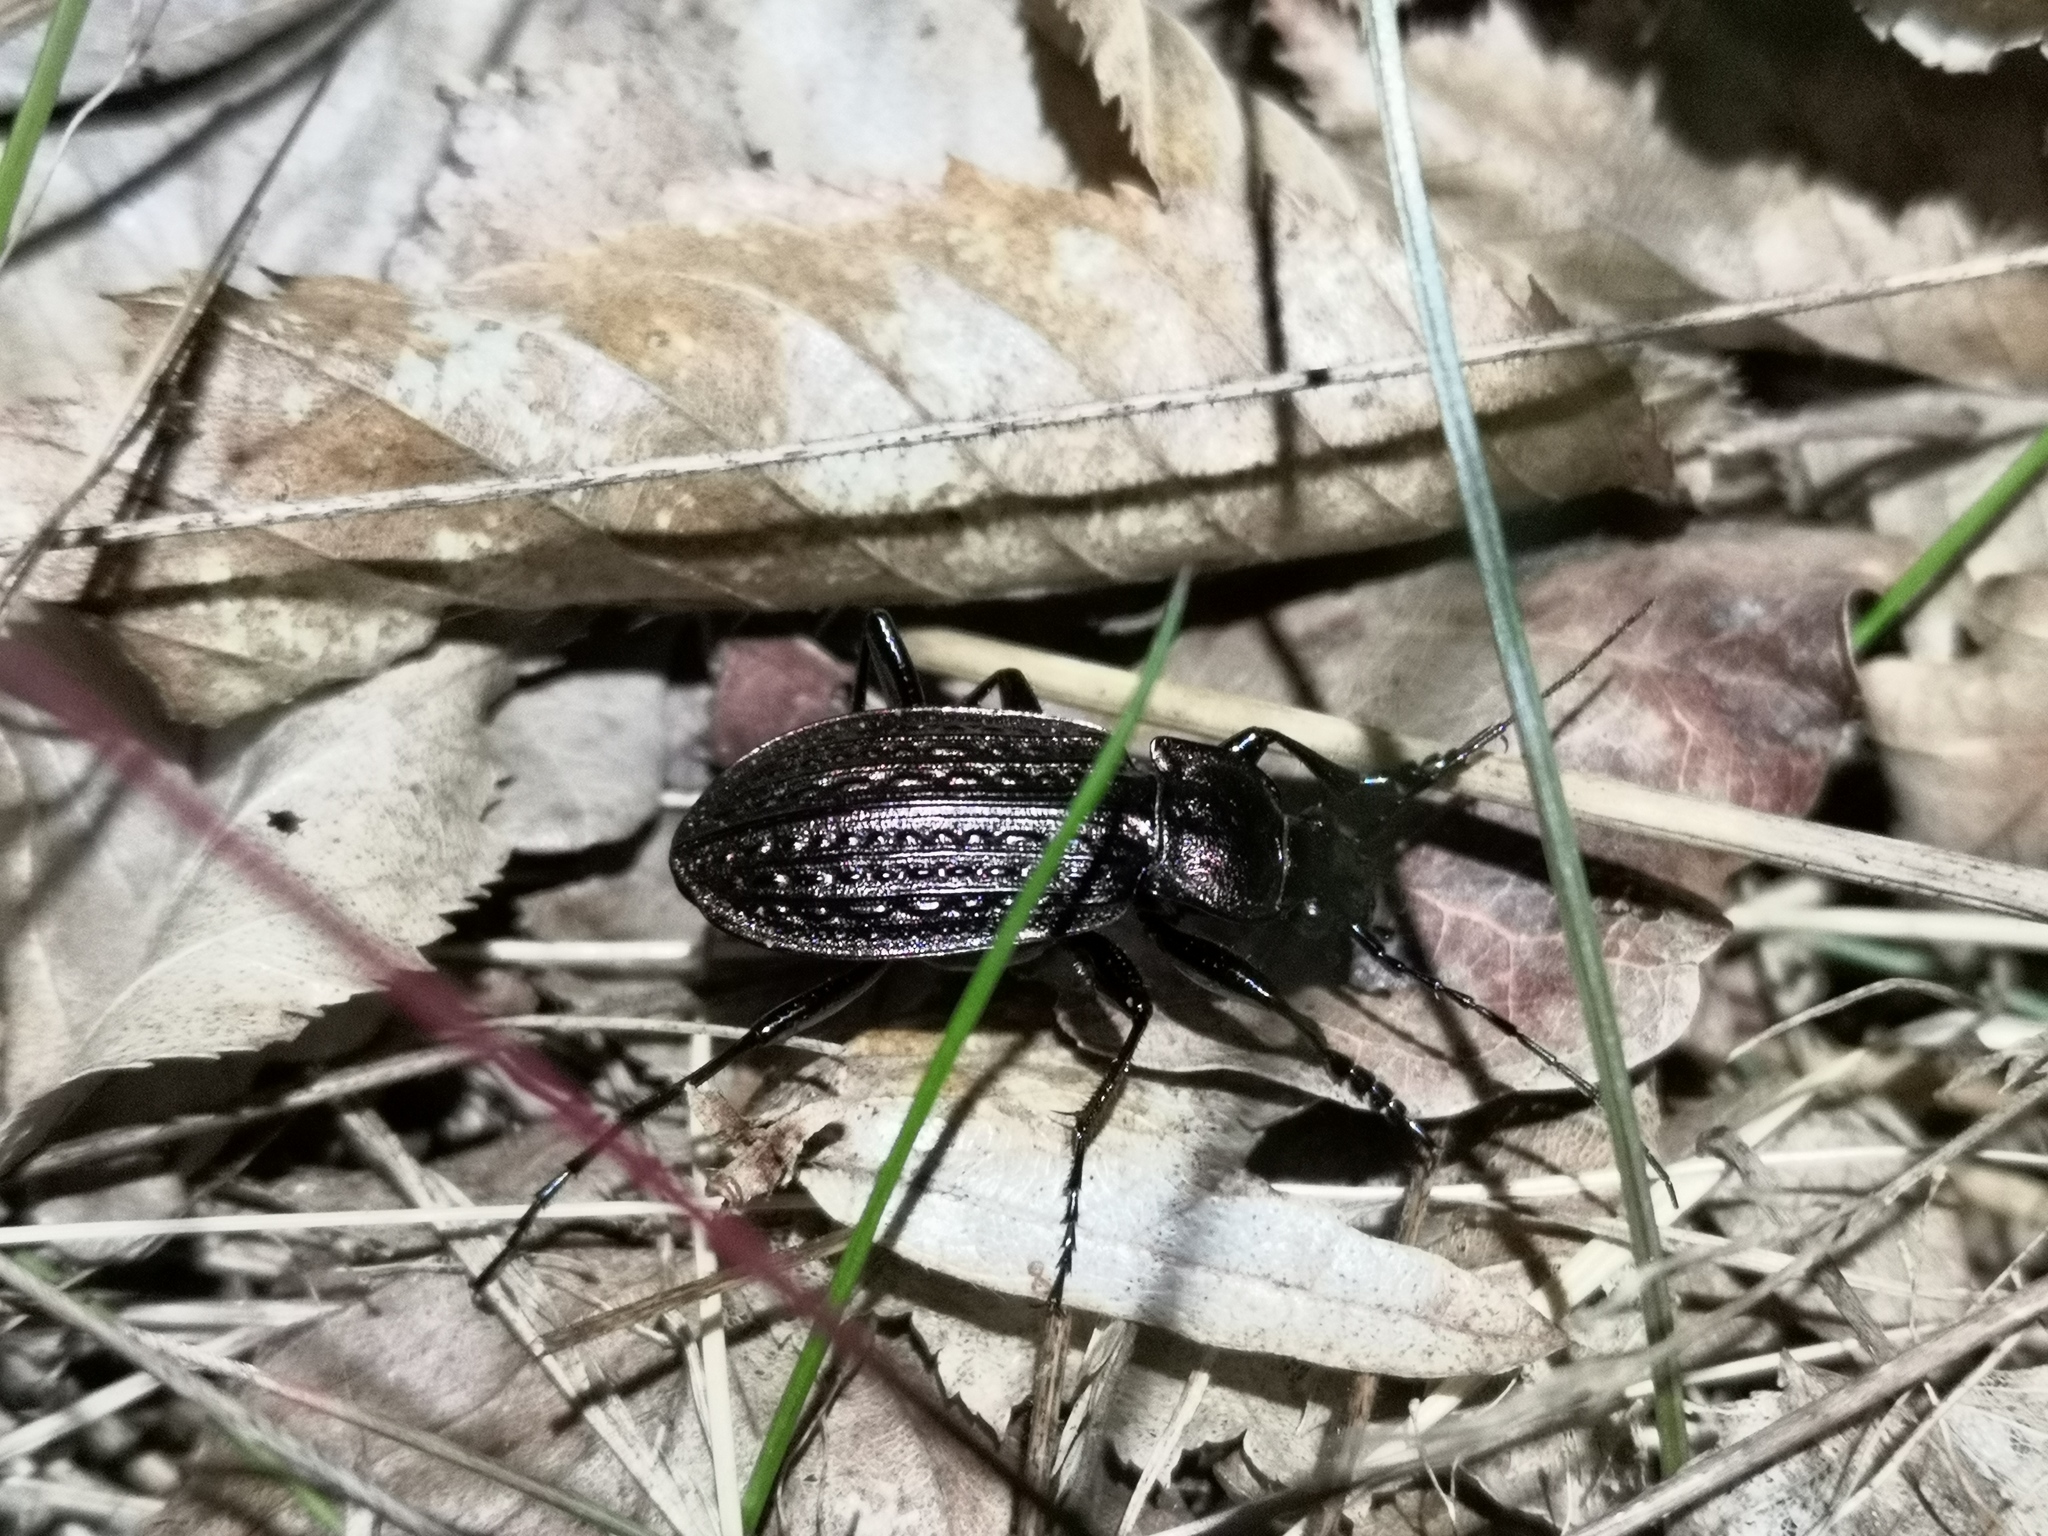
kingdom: Animalia
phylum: Arthropoda
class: Insecta
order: Coleoptera
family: Carabidae
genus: Carabus
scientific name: Carabus granulatus
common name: Granulate ground beetle
